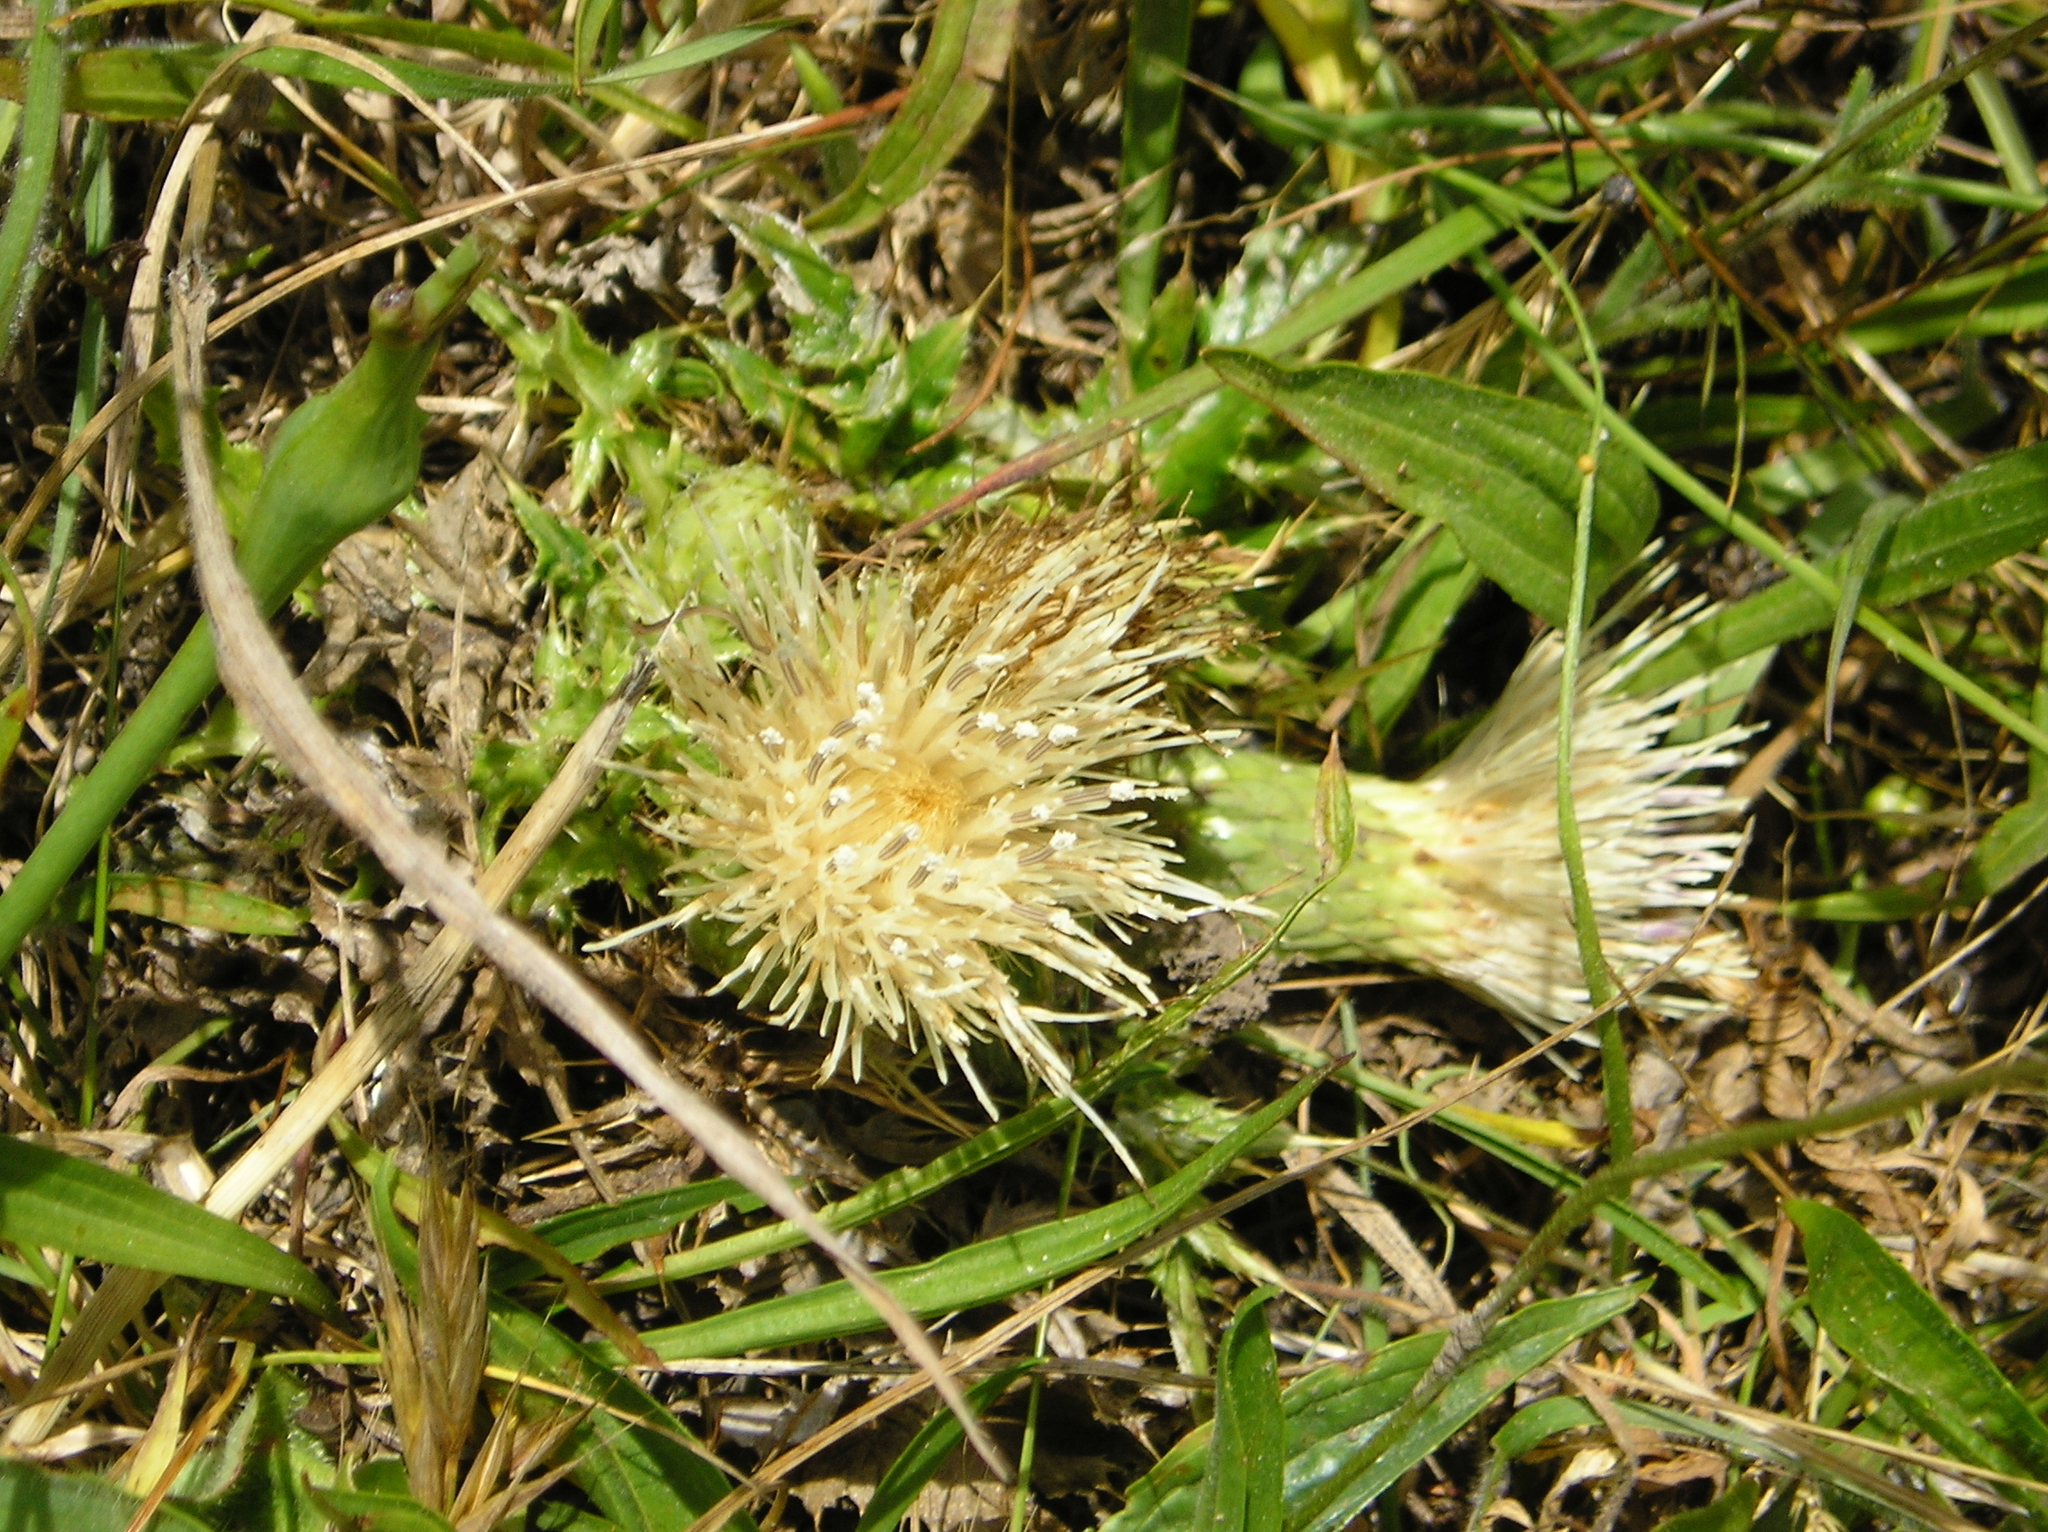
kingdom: Plantae
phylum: Tracheophyta
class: Magnoliopsida
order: Asterales
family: Asteraceae
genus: Cirsium
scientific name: Cirsium quercetorum
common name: Alameda county thistle
